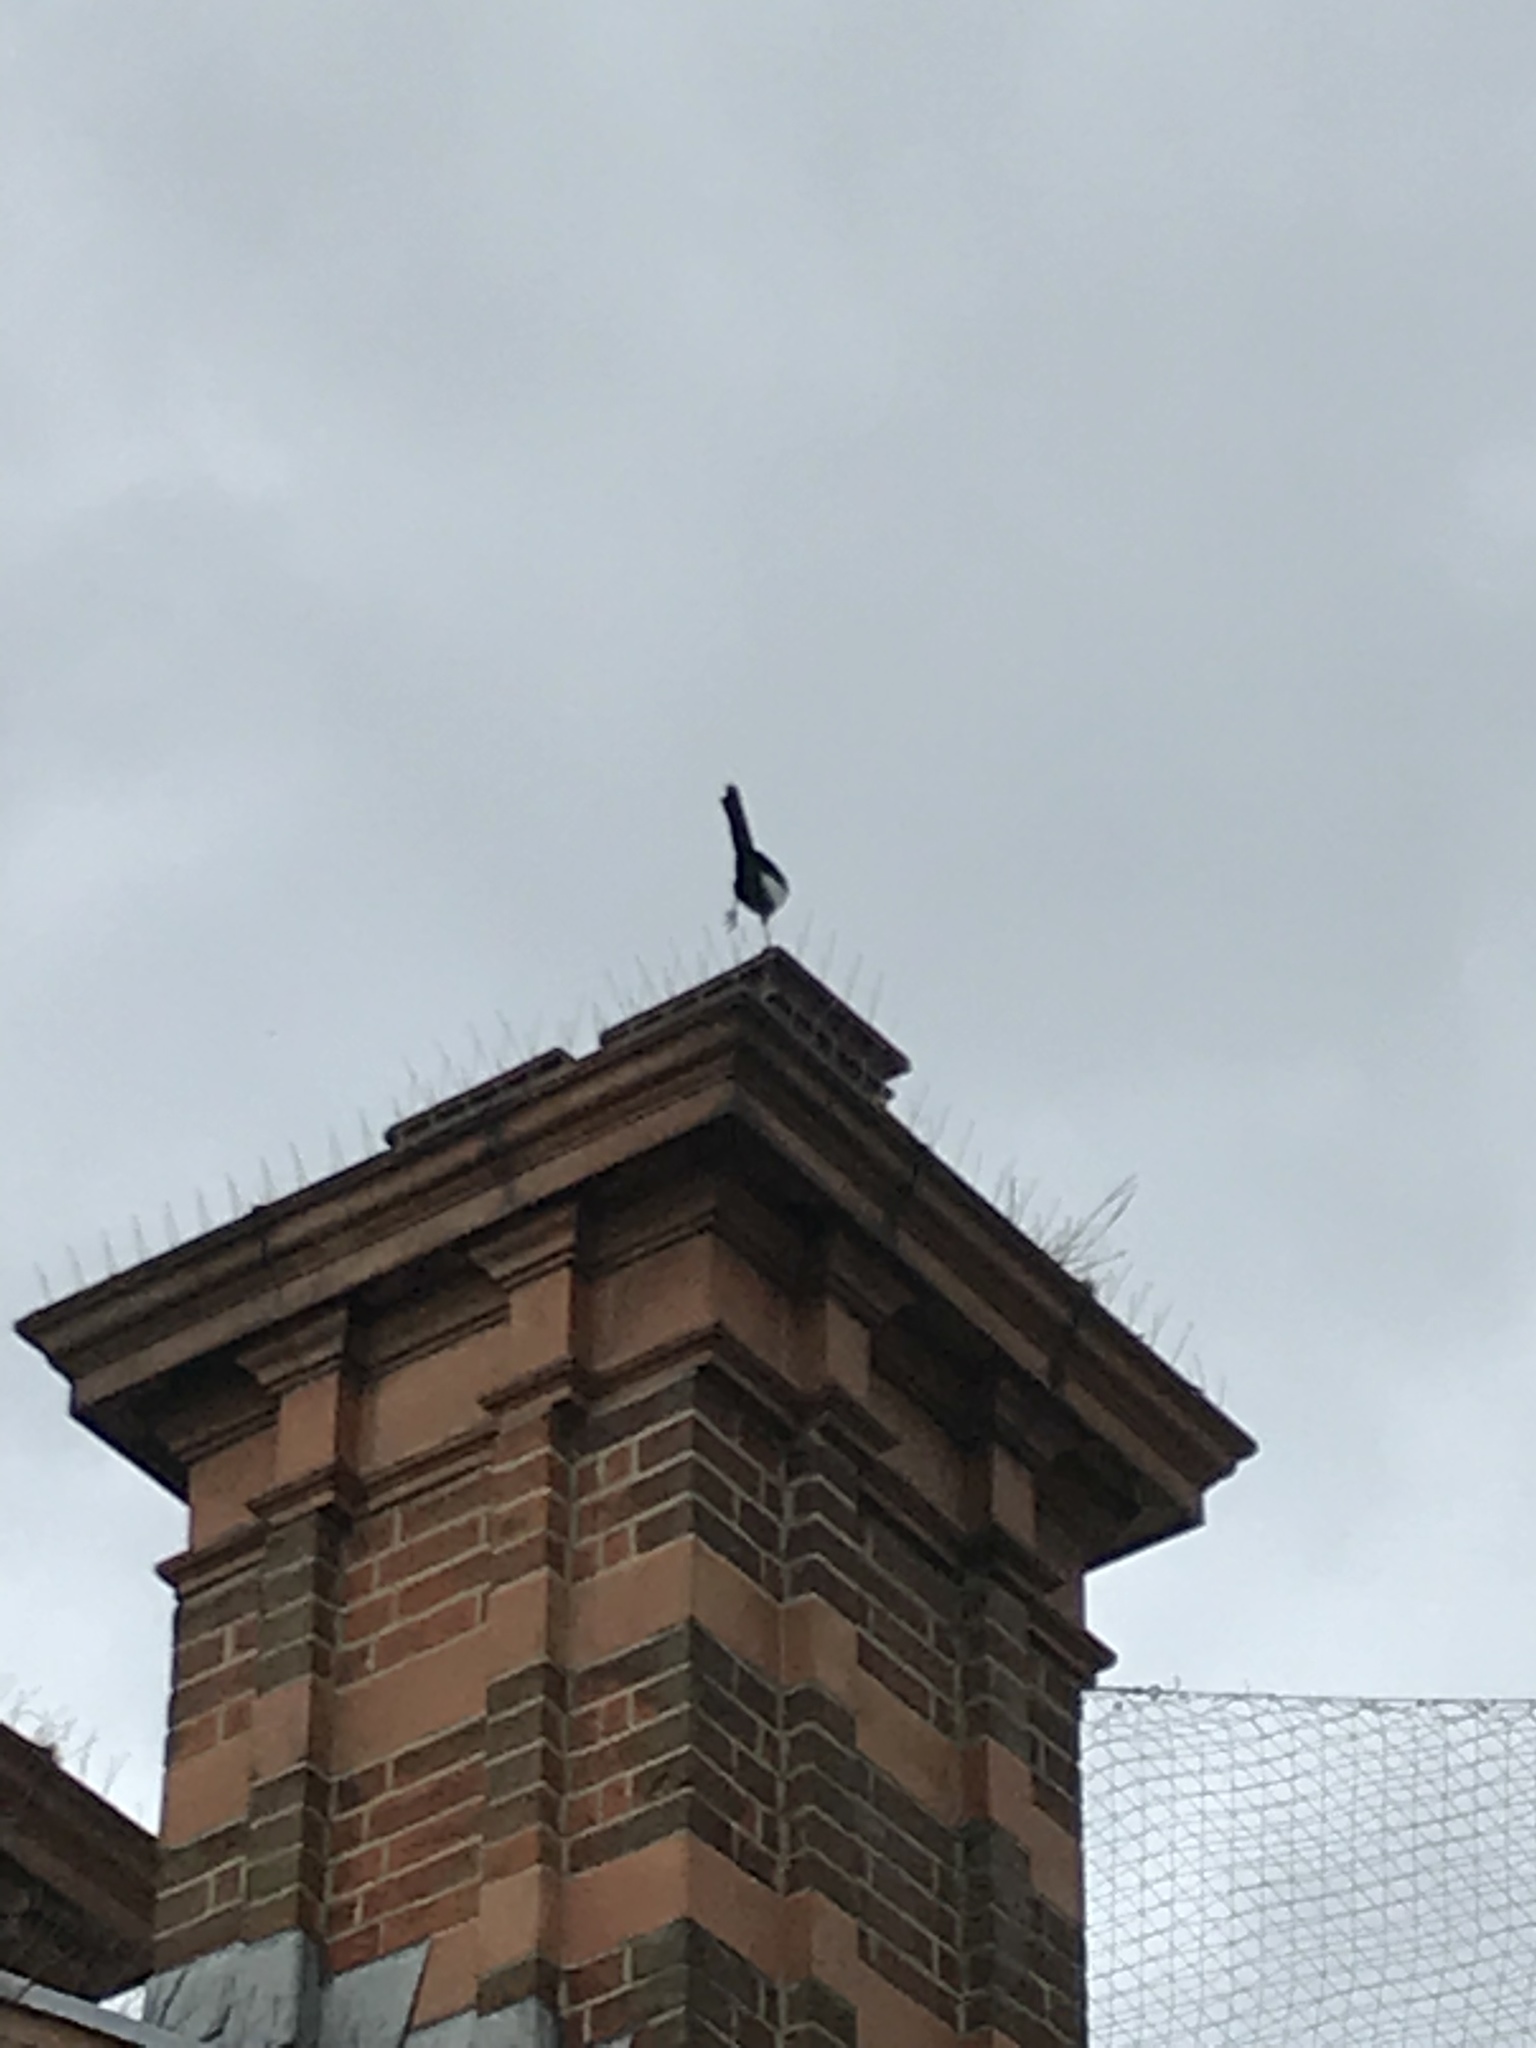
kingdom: Animalia
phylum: Chordata
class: Aves
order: Passeriformes
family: Corvidae
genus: Pica
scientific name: Pica pica
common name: Eurasian magpie
